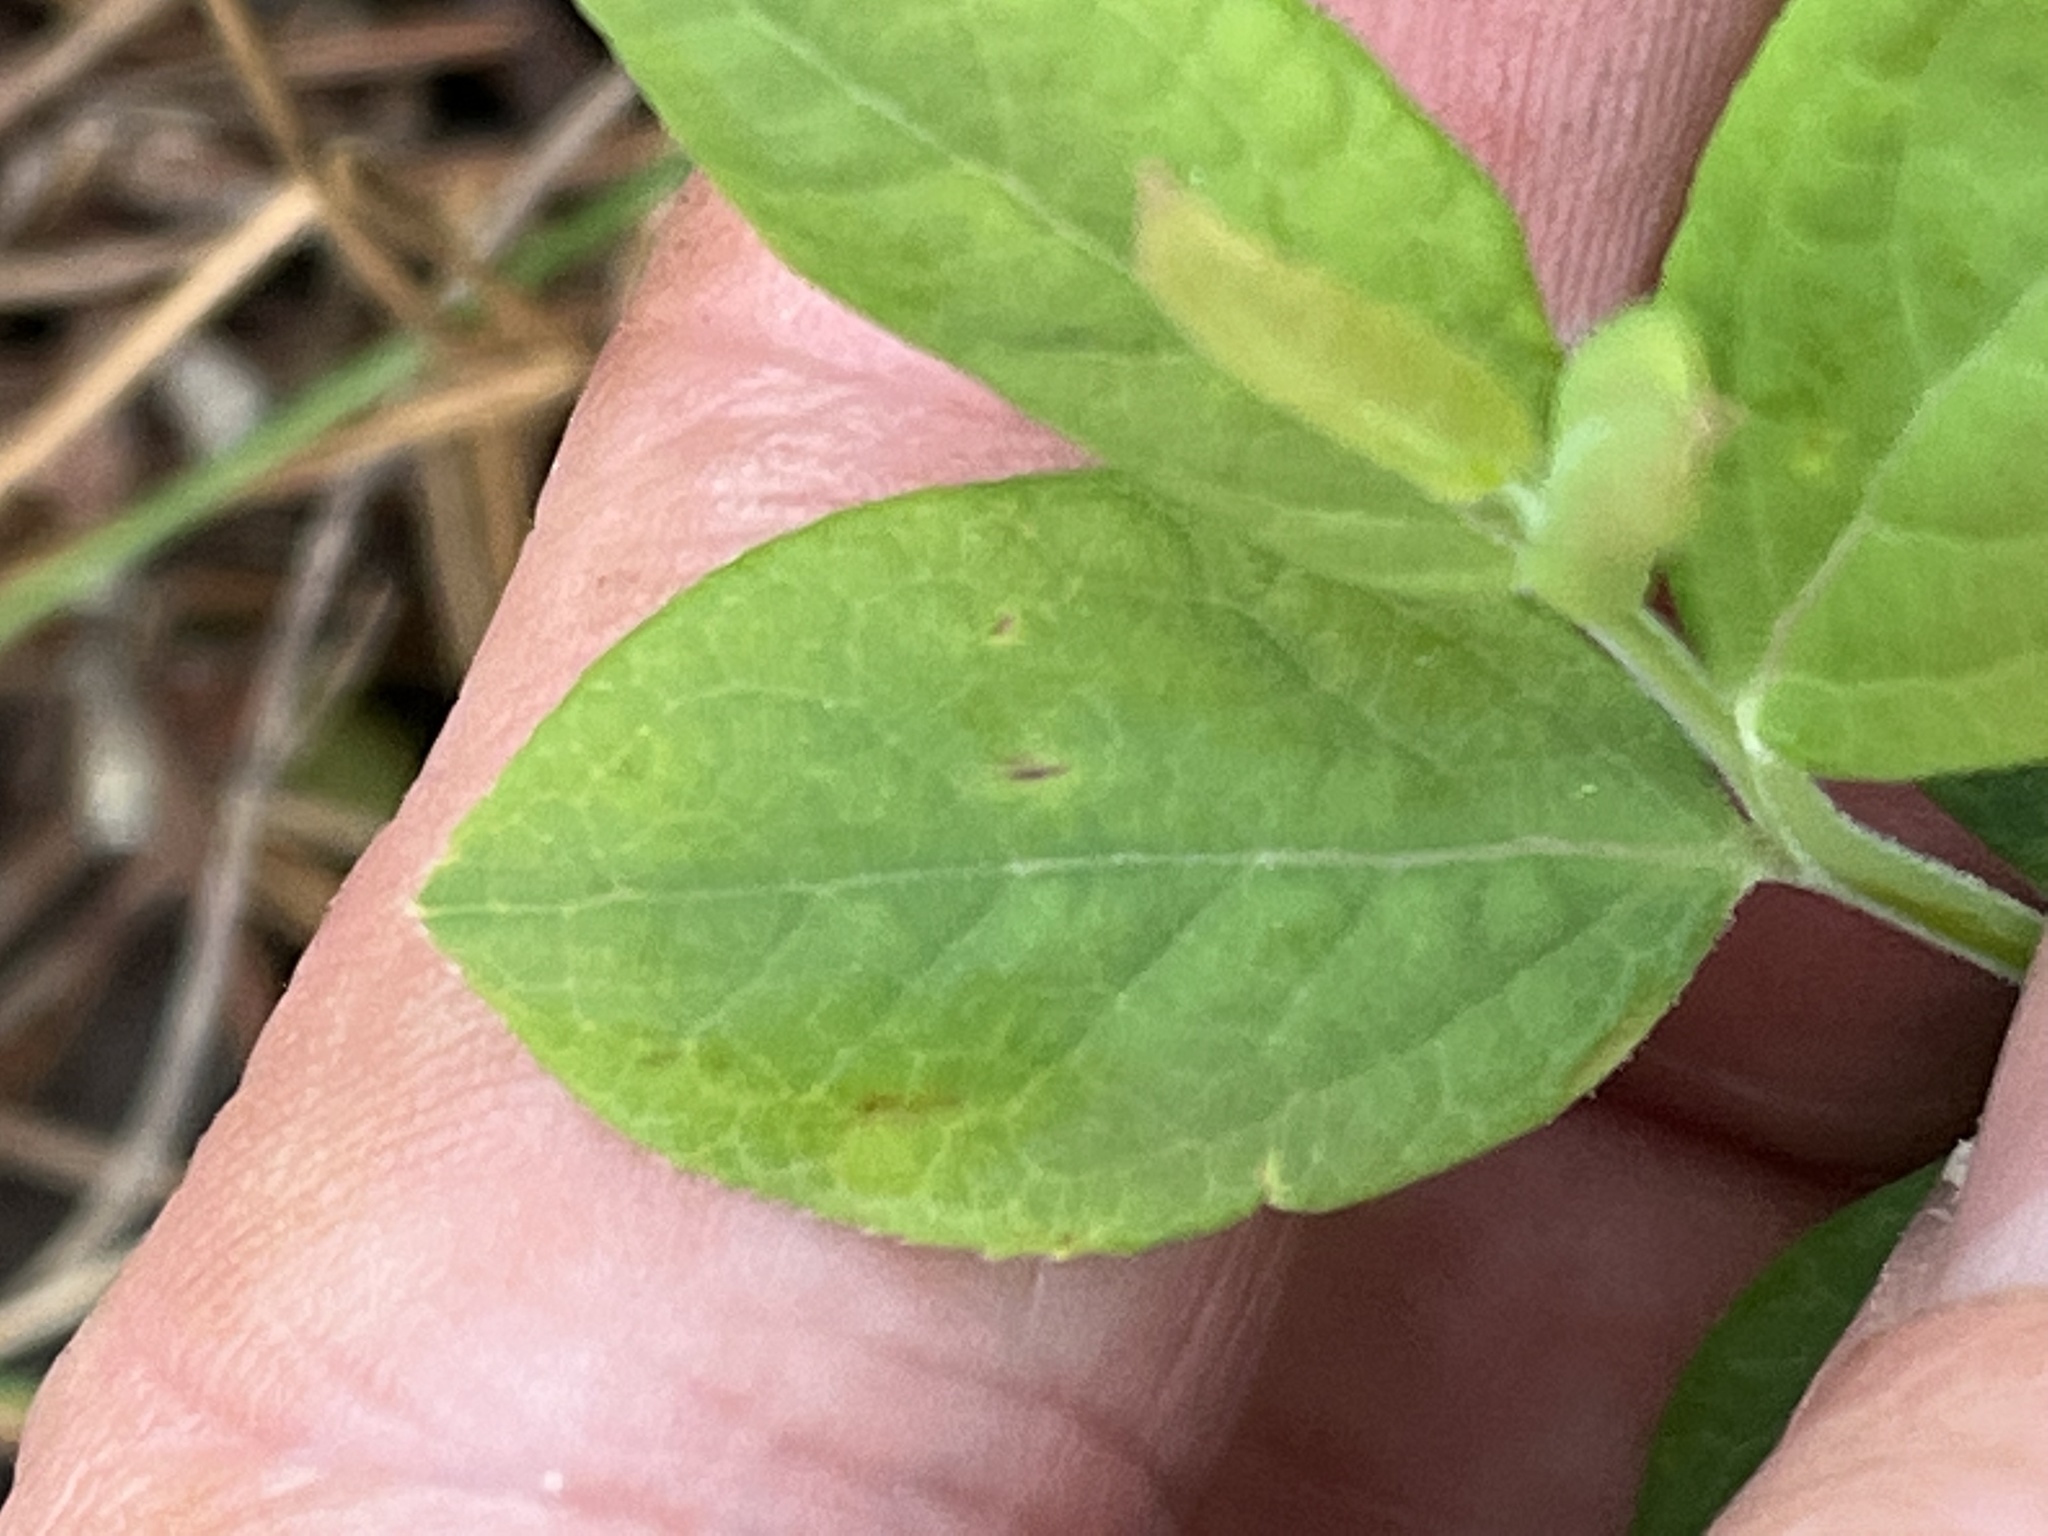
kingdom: Plantae
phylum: Tracheophyta
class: Magnoliopsida
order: Ericales
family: Ericaceae
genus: Vaccinium
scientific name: Vaccinium pallidum
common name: Blue ridge blueberry
